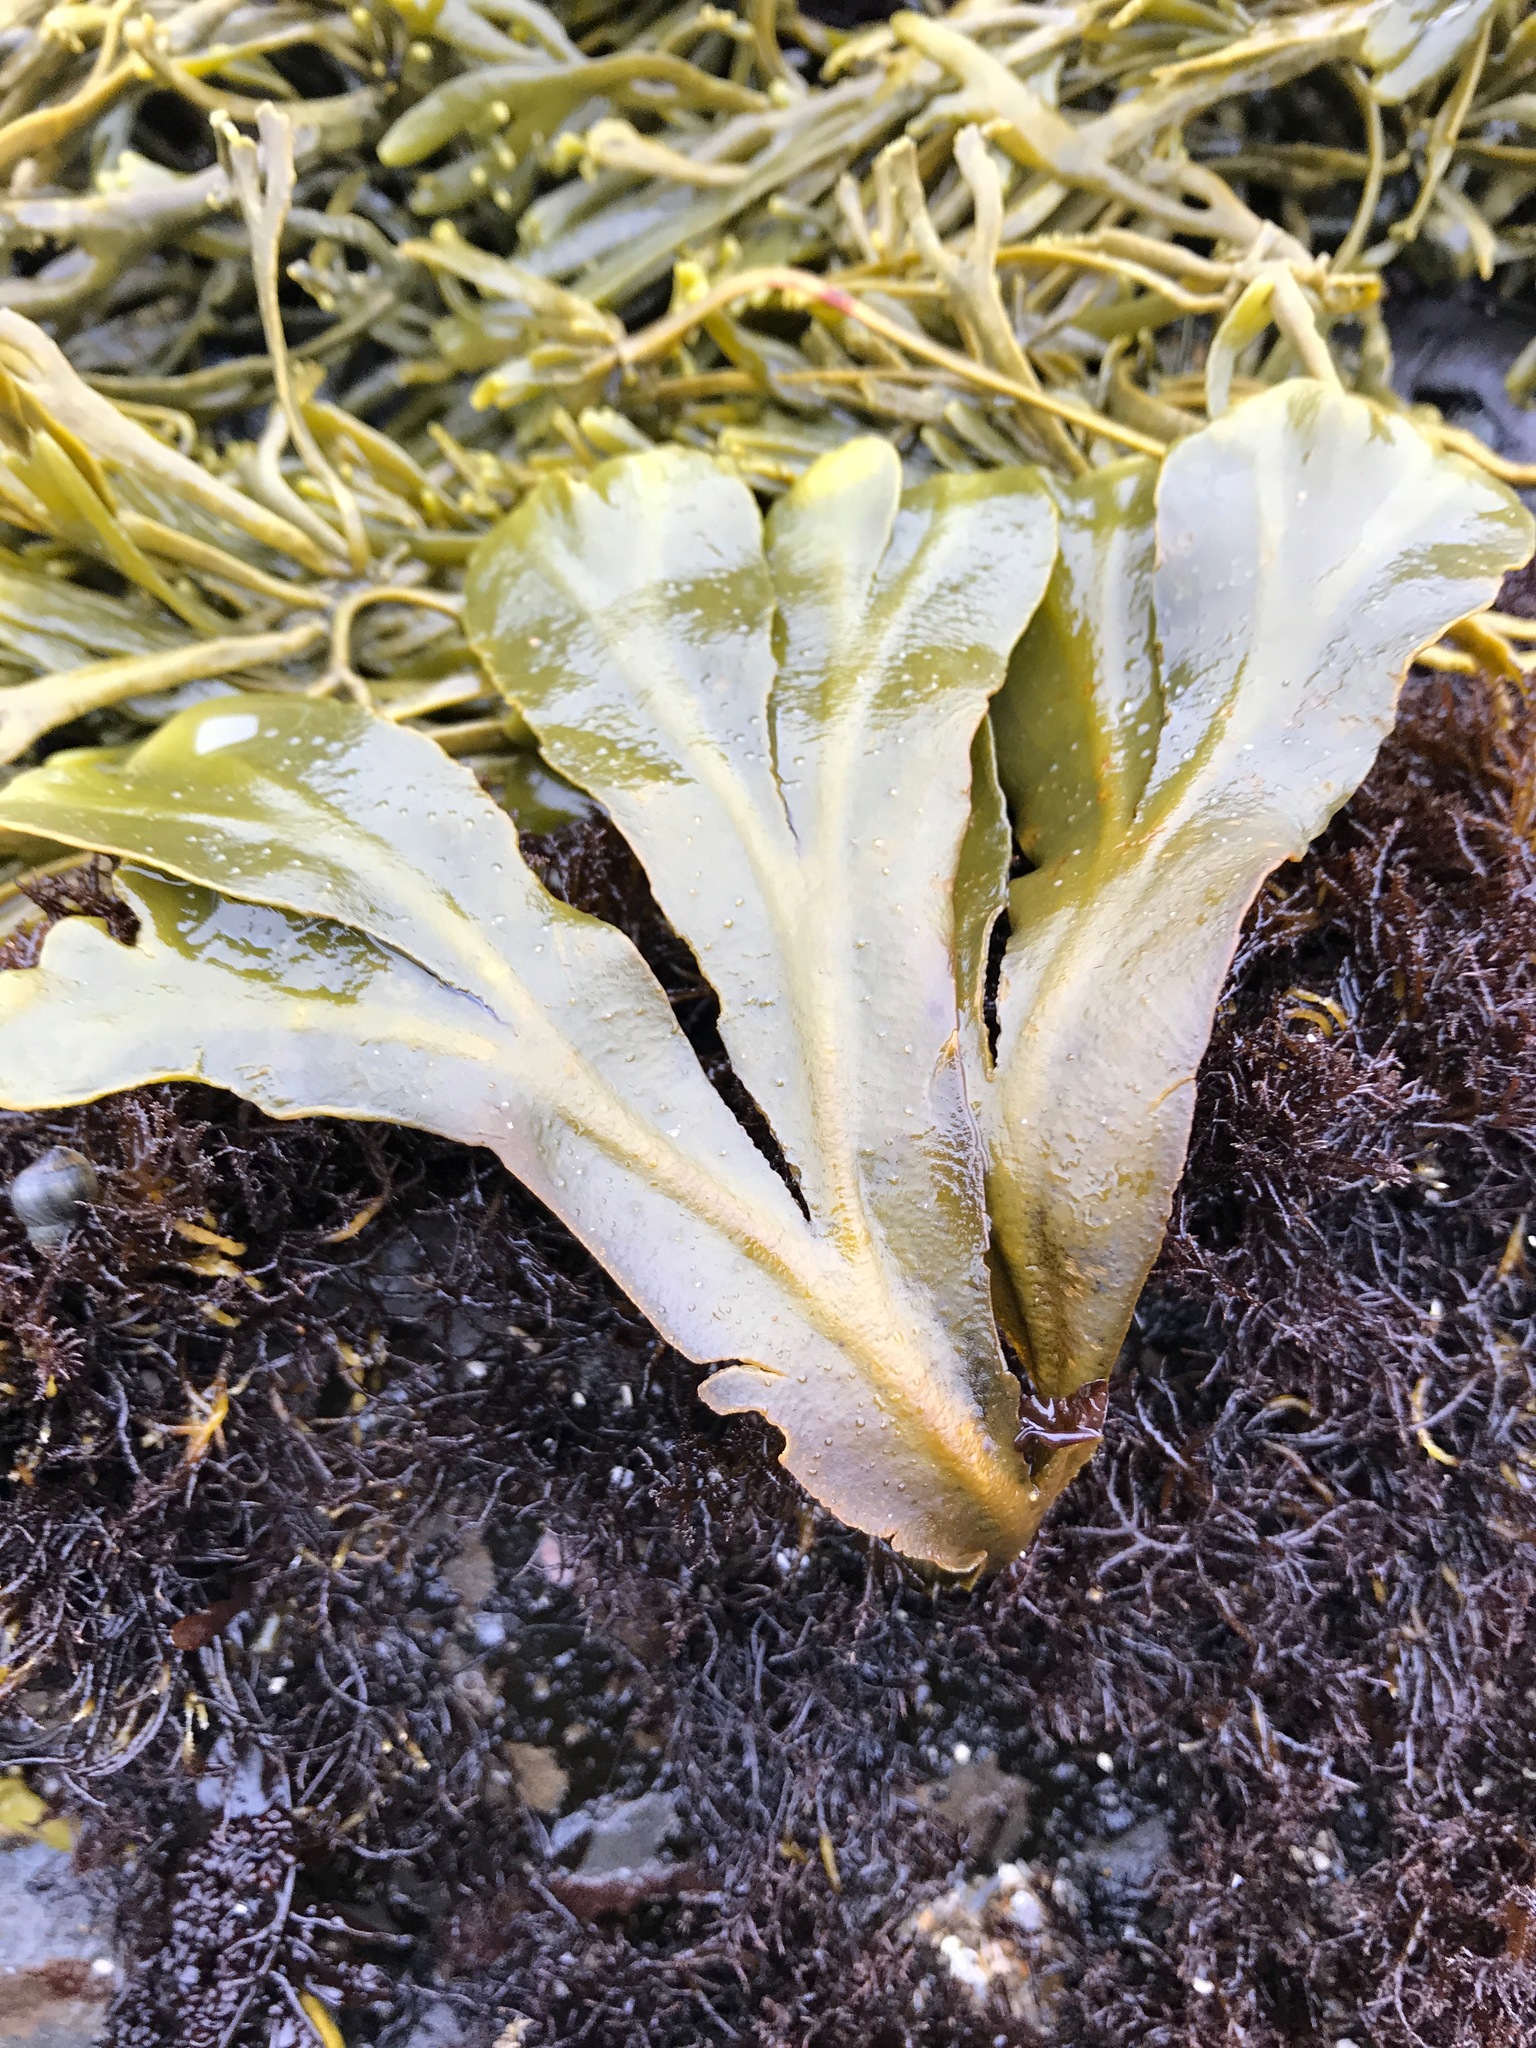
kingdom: Chromista
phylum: Ochrophyta
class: Phaeophyceae
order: Fucales
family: Fucaceae
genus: Fucus
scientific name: Fucus distichus
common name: Rockweed
